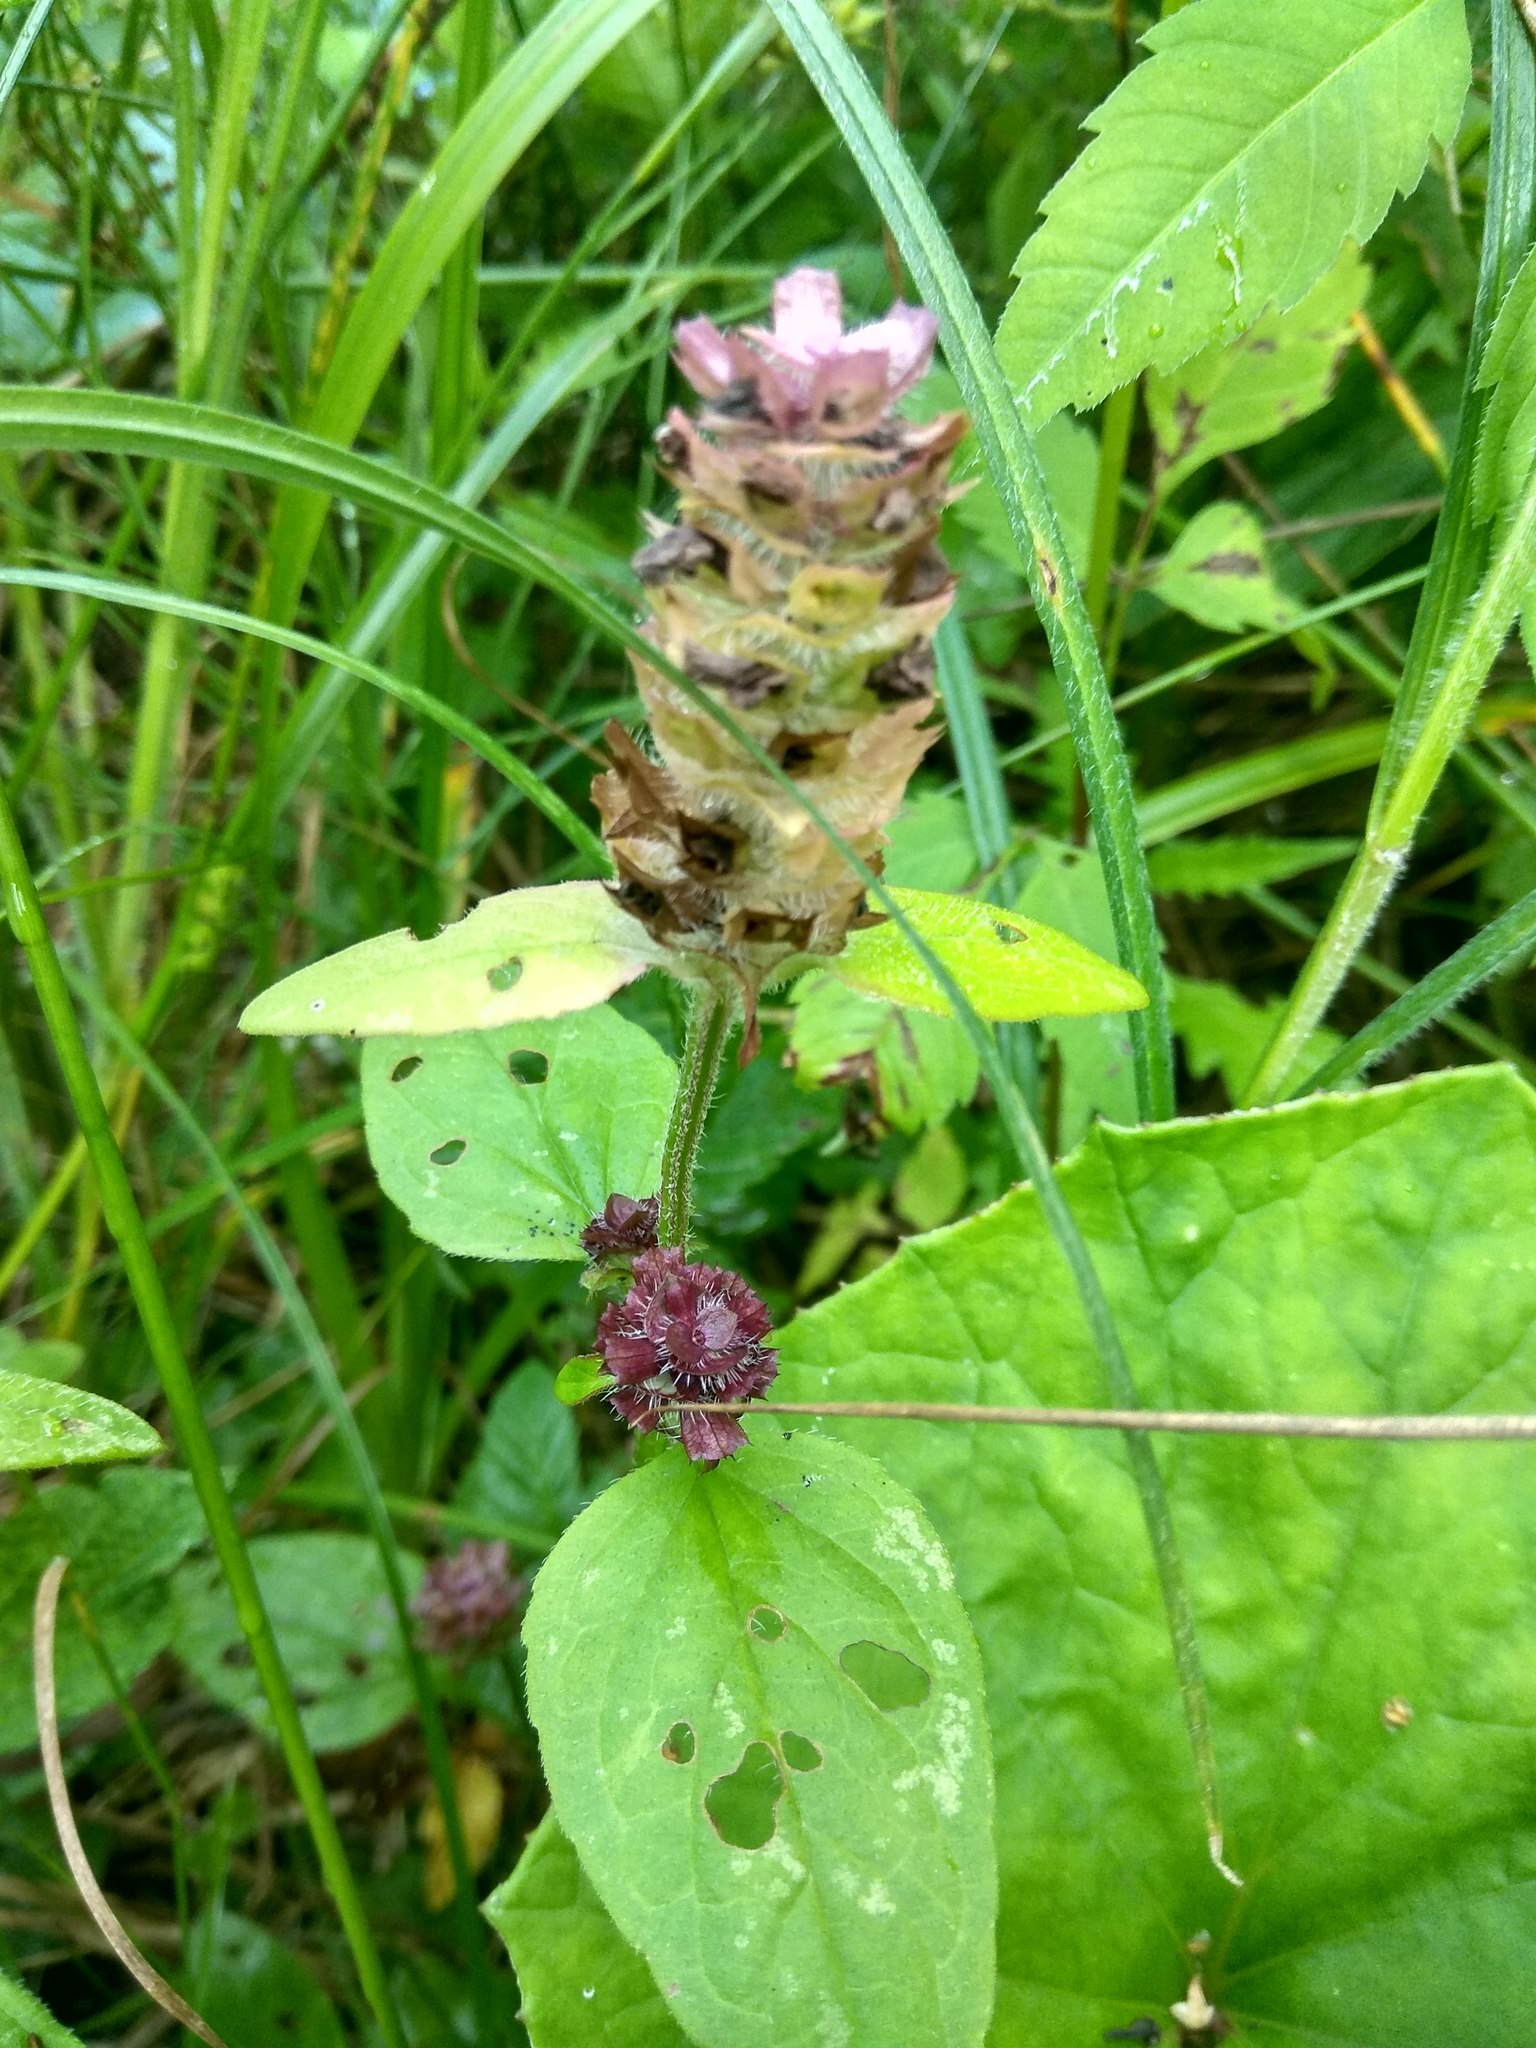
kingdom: Plantae
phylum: Tracheophyta
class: Magnoliopsida
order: Lamiales
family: Lamiaceae
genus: Prunella
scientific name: Prunella vulgaris
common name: Heal-all
